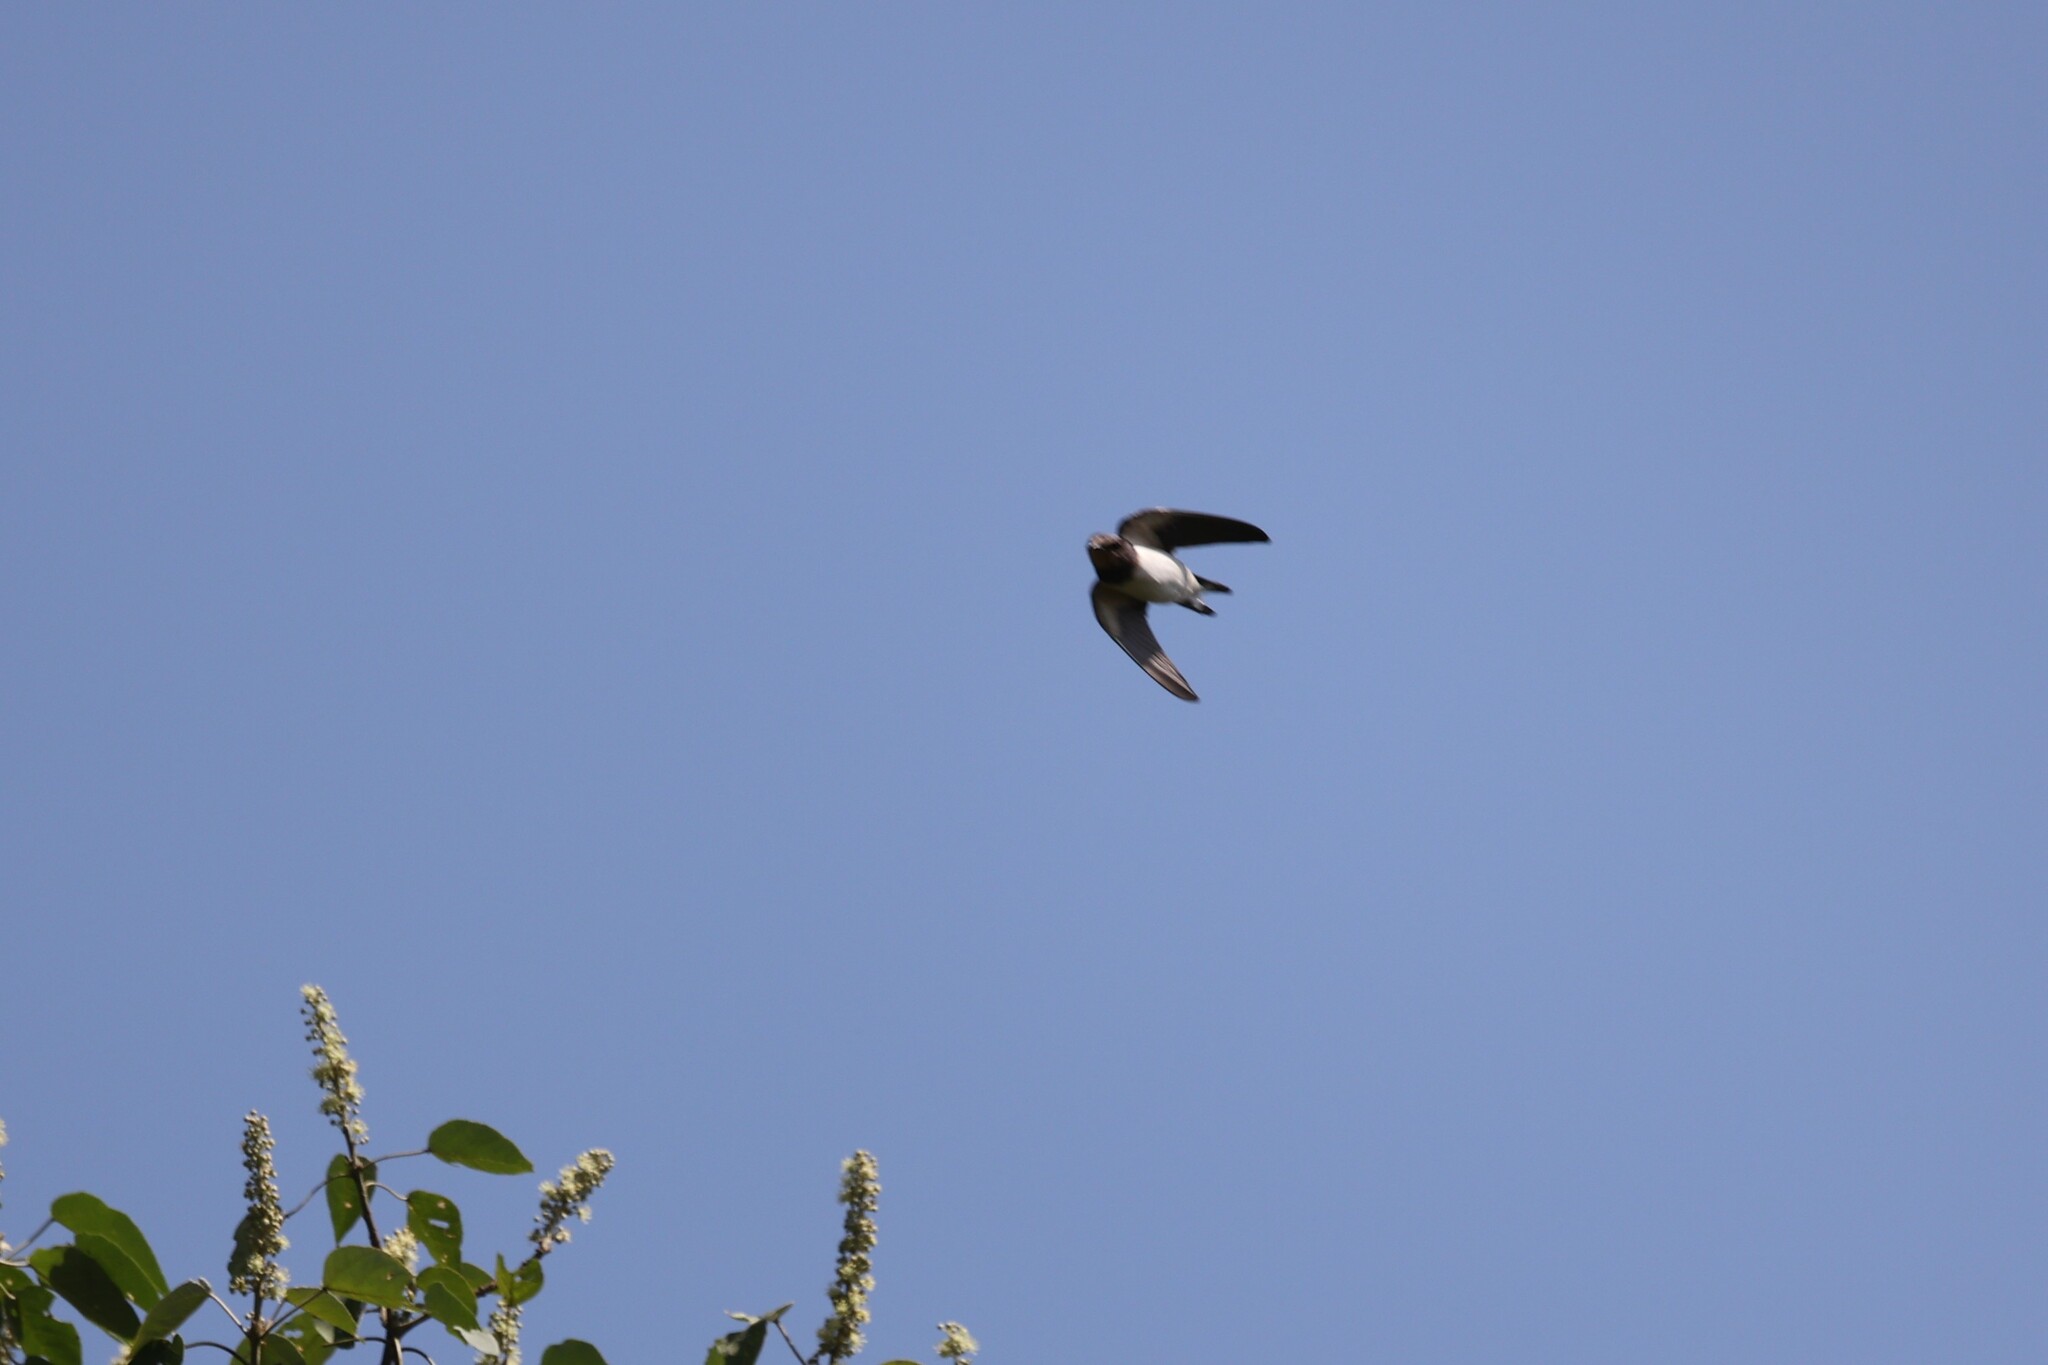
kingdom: Animalia
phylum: Chordata
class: Aves
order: Passeriformes
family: Hirundinidae
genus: Hirundo
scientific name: Hirundo rustica
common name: Barn swallow
